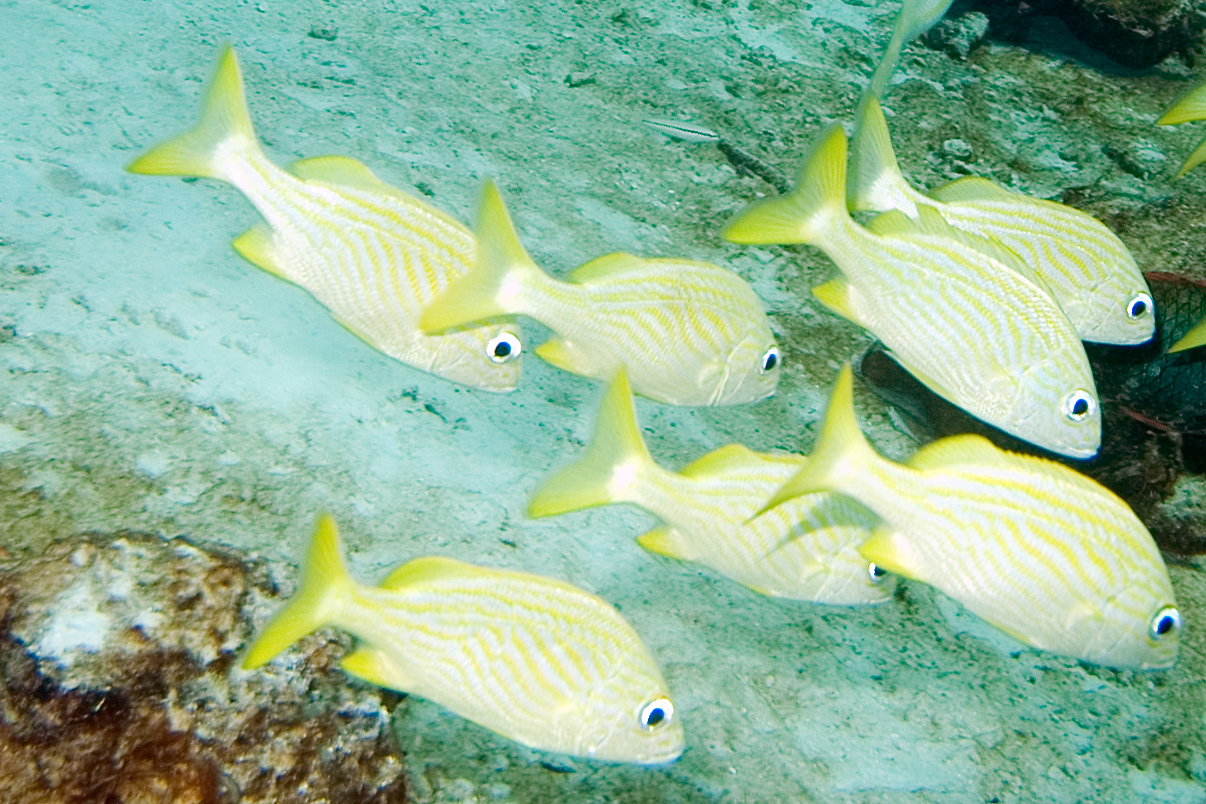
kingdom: Animalia
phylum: Chordata
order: Perciformes
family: Haemulidae
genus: Haemulon
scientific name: Haemulon flavolineatum
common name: French grunt
